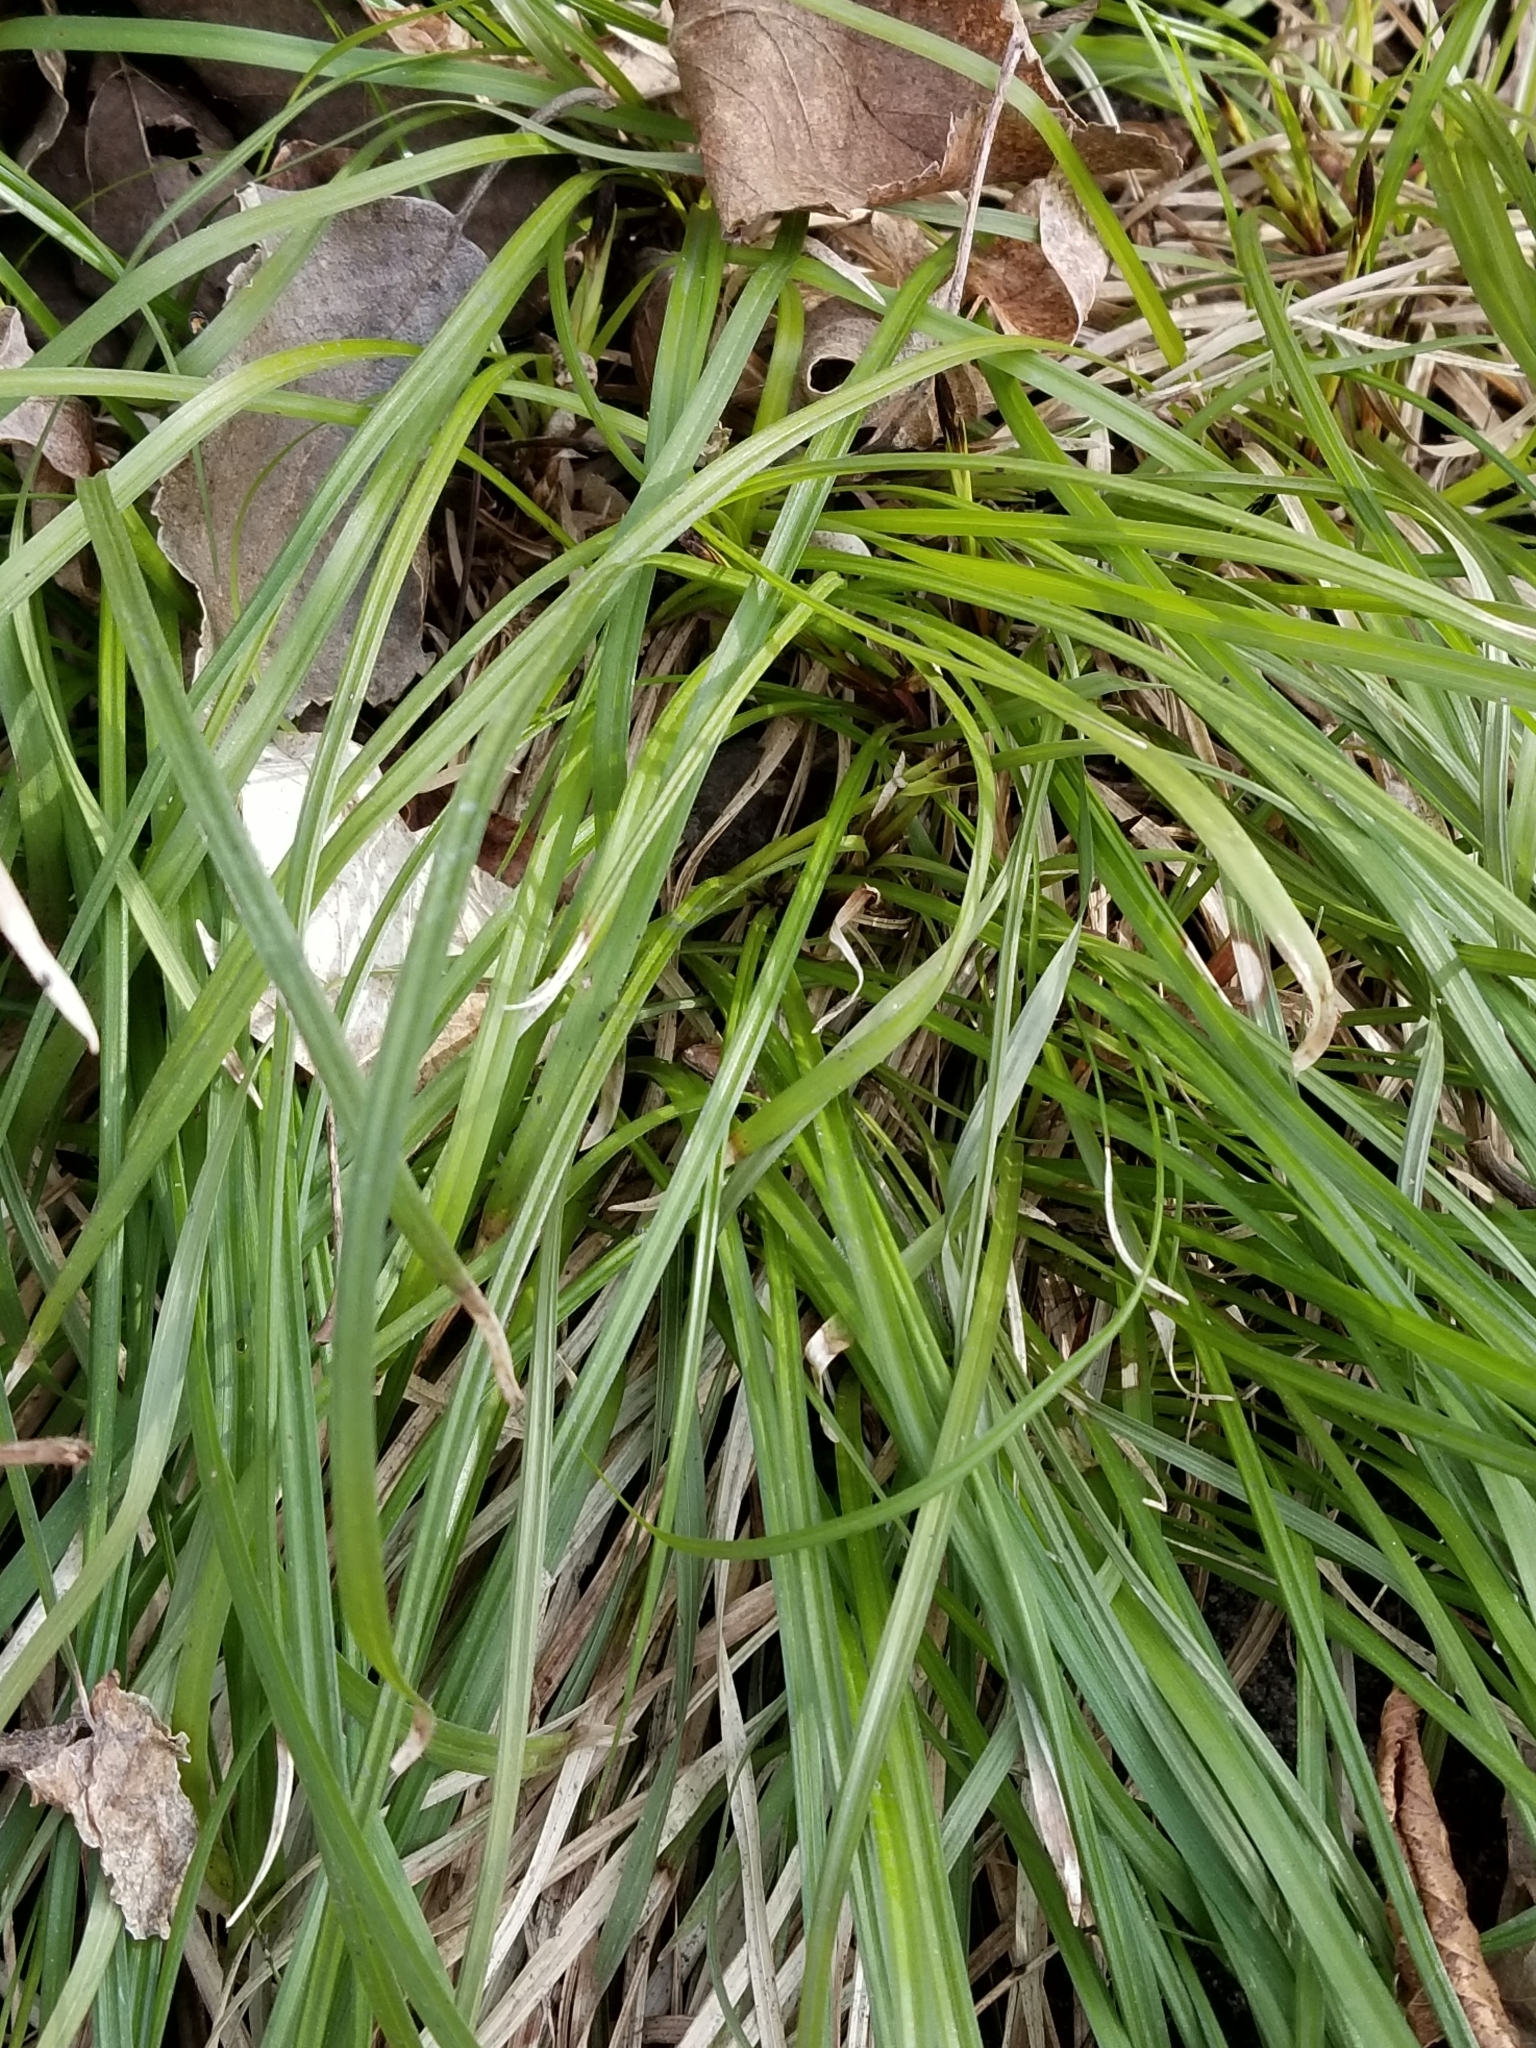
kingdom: Plantae
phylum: Tracheophyta
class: Liliopsida
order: Poales
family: Cyperaceae
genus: Carex
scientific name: Carex pedunculata
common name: Pedunculate sedge
